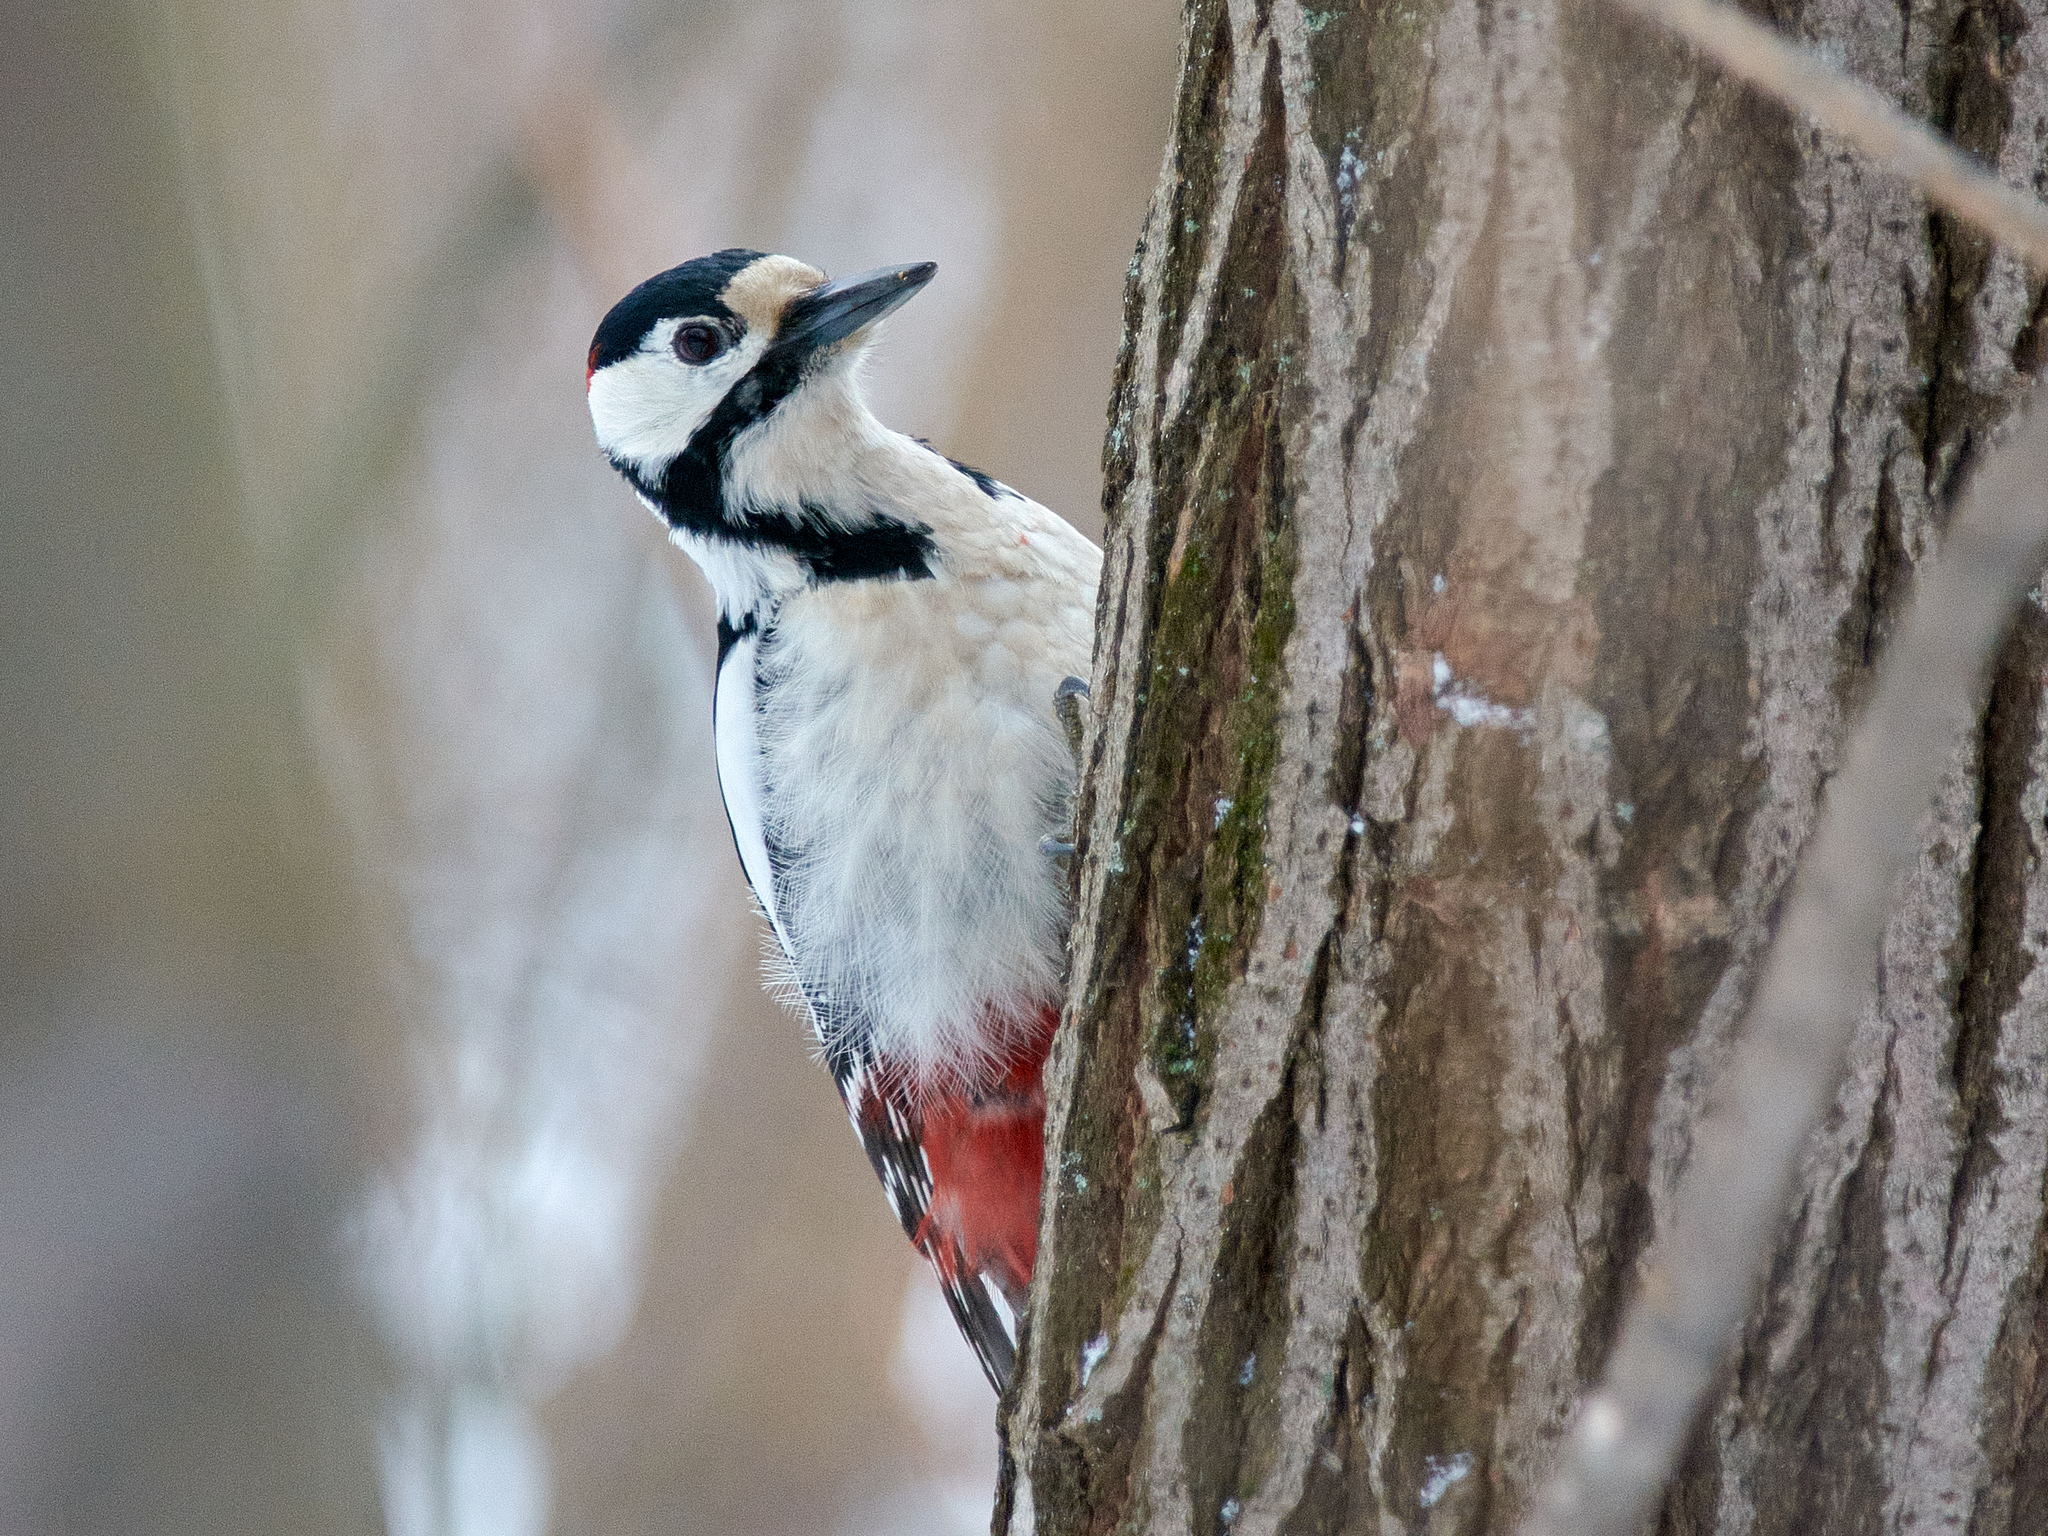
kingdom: Animalia
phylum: Chordata
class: Aves
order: Piciformes
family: Picidae
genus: Dendrocopos
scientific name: Dendrocopos major
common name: Great spotted woodpecker
